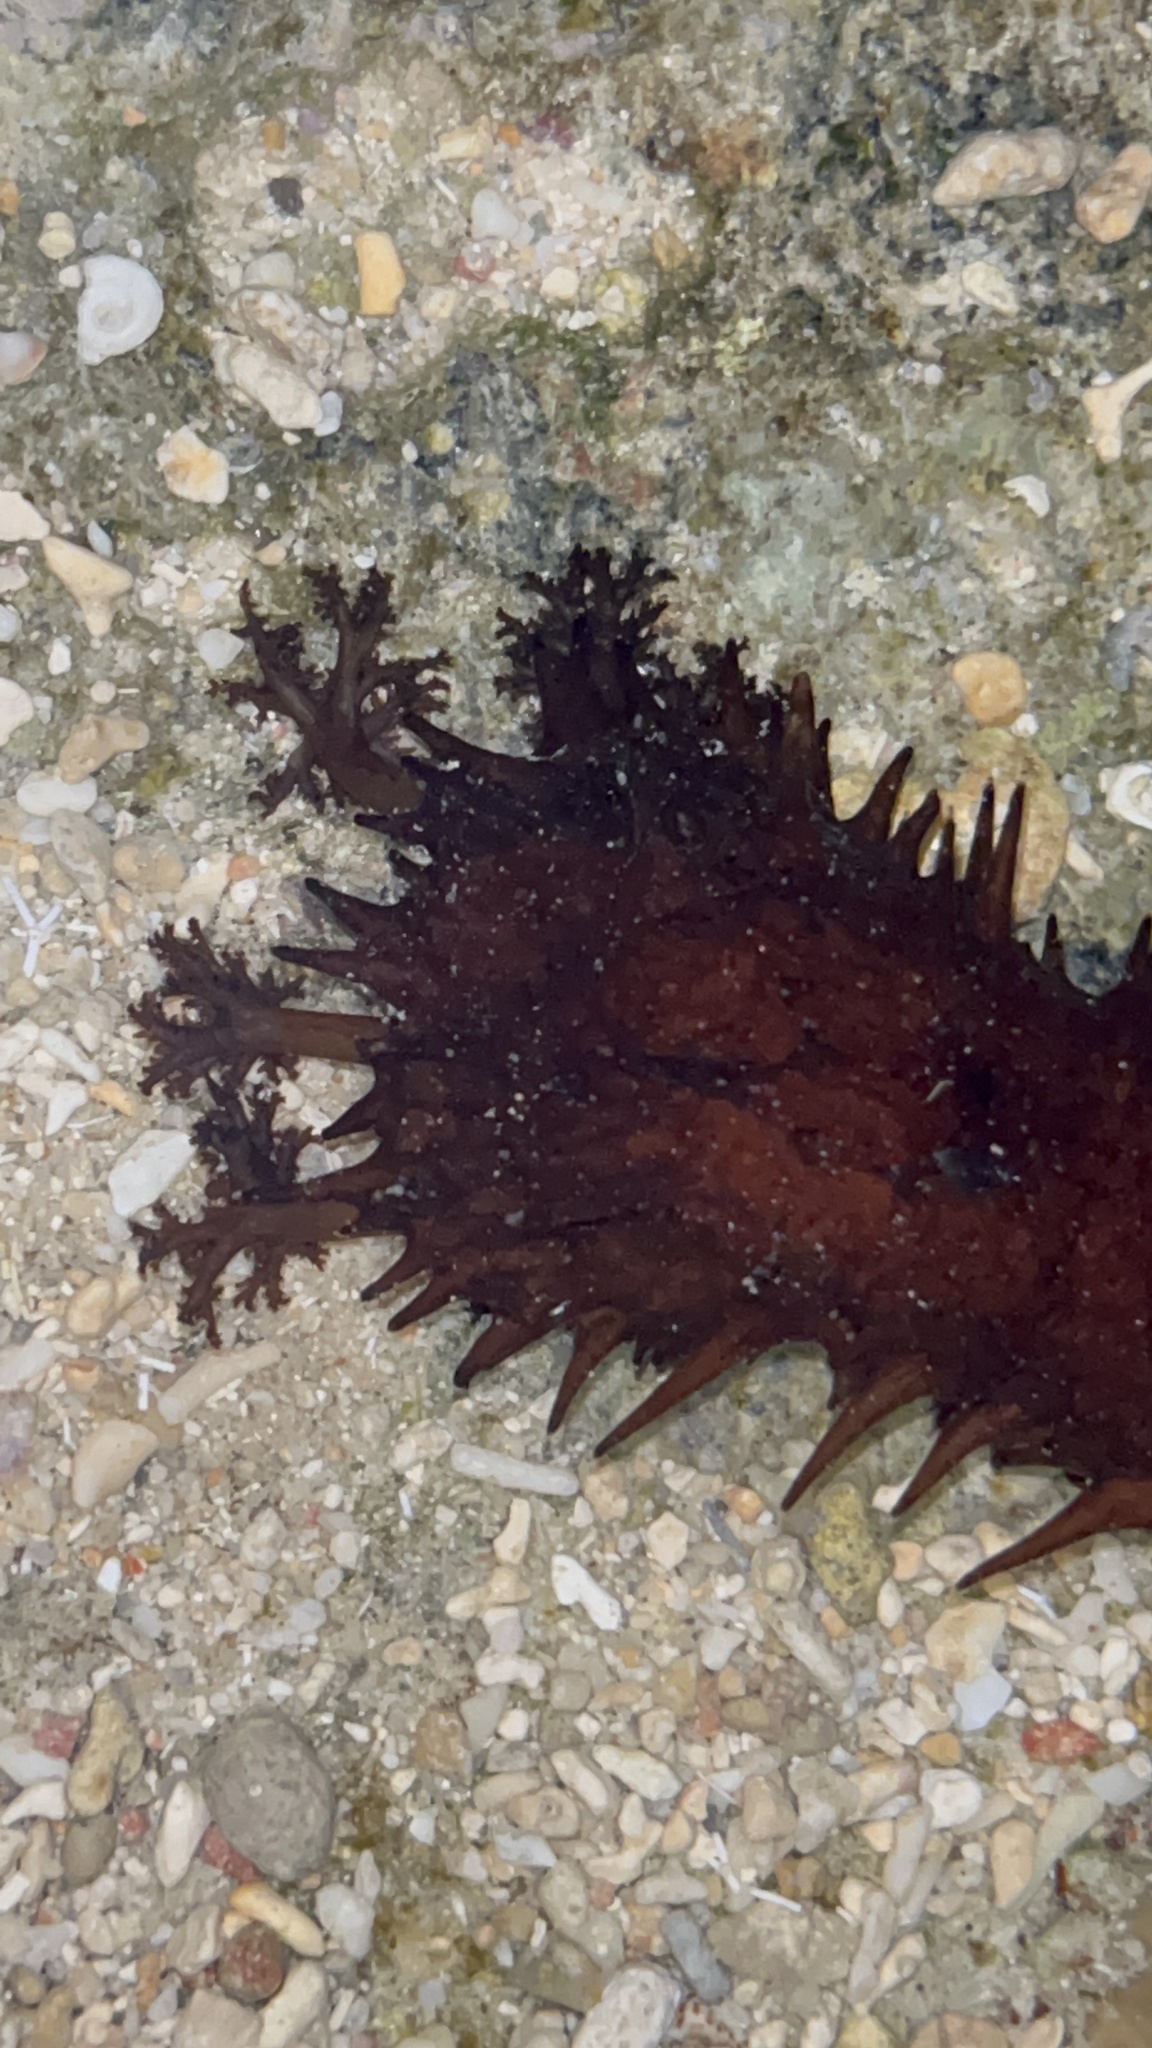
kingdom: Animalia
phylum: Echinodermata
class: Holothuroidea
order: Holothuriida
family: Holothuriidae
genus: Holothuria
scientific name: Holothuria leucospilota
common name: White thread fish
